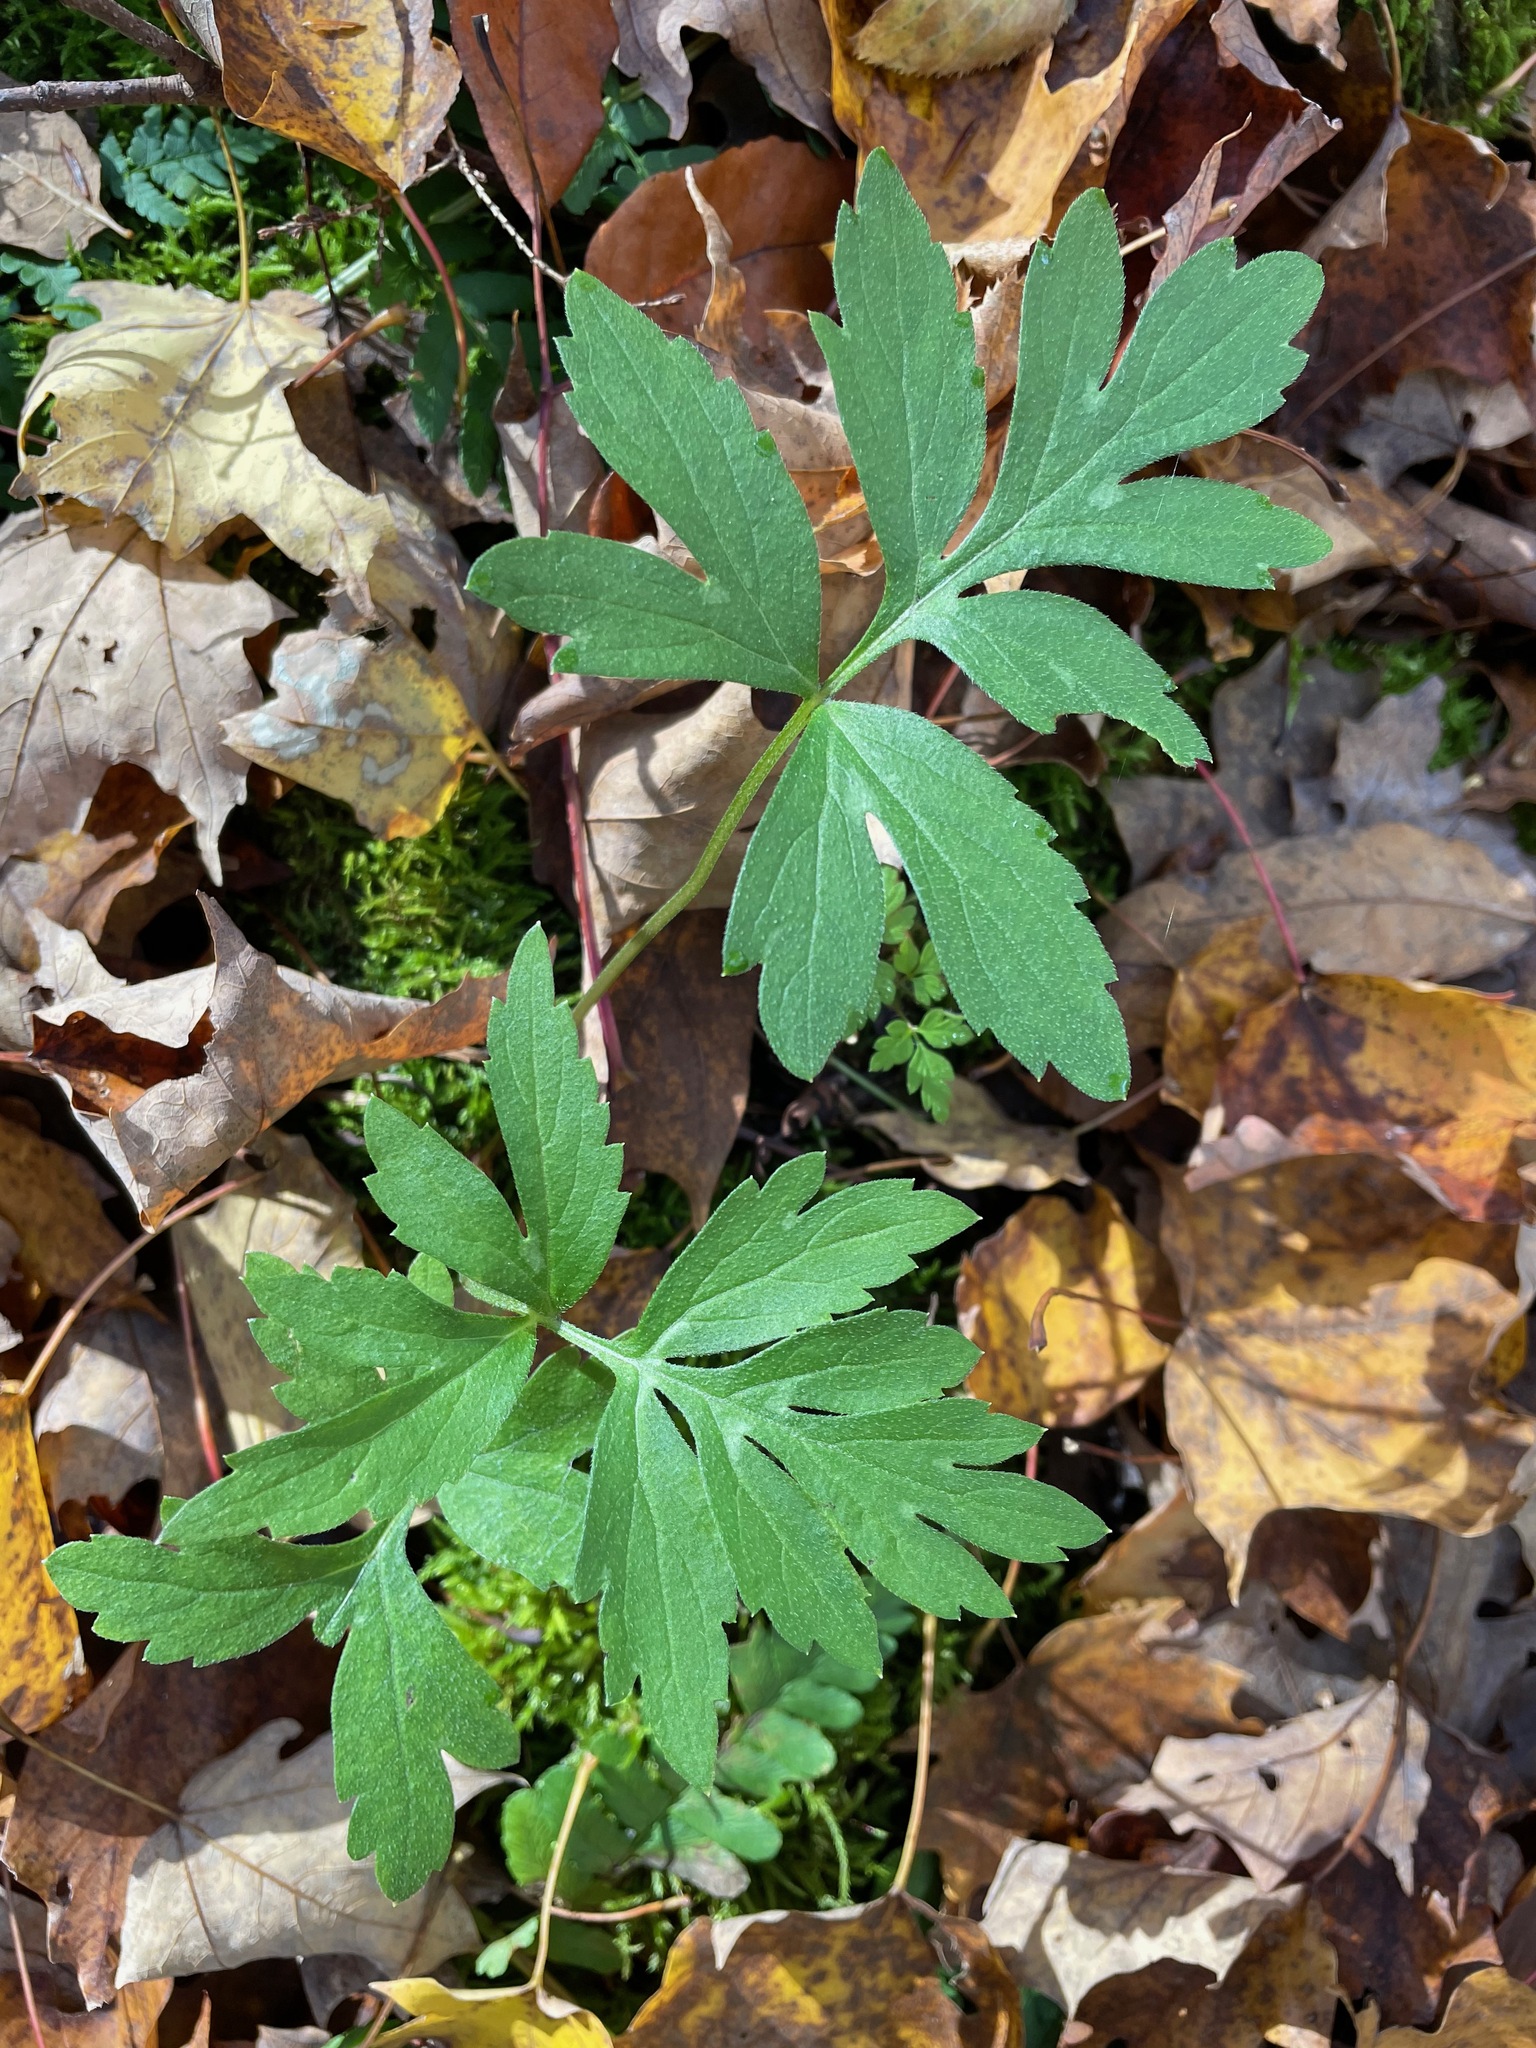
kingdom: Plantae
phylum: Tracheophyta
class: Magnoliopsida
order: Boraginales
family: Hydrophyllaceae
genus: Hydrophyllum
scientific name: Hydrophyllum virginianum
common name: Virginia waterleaf
